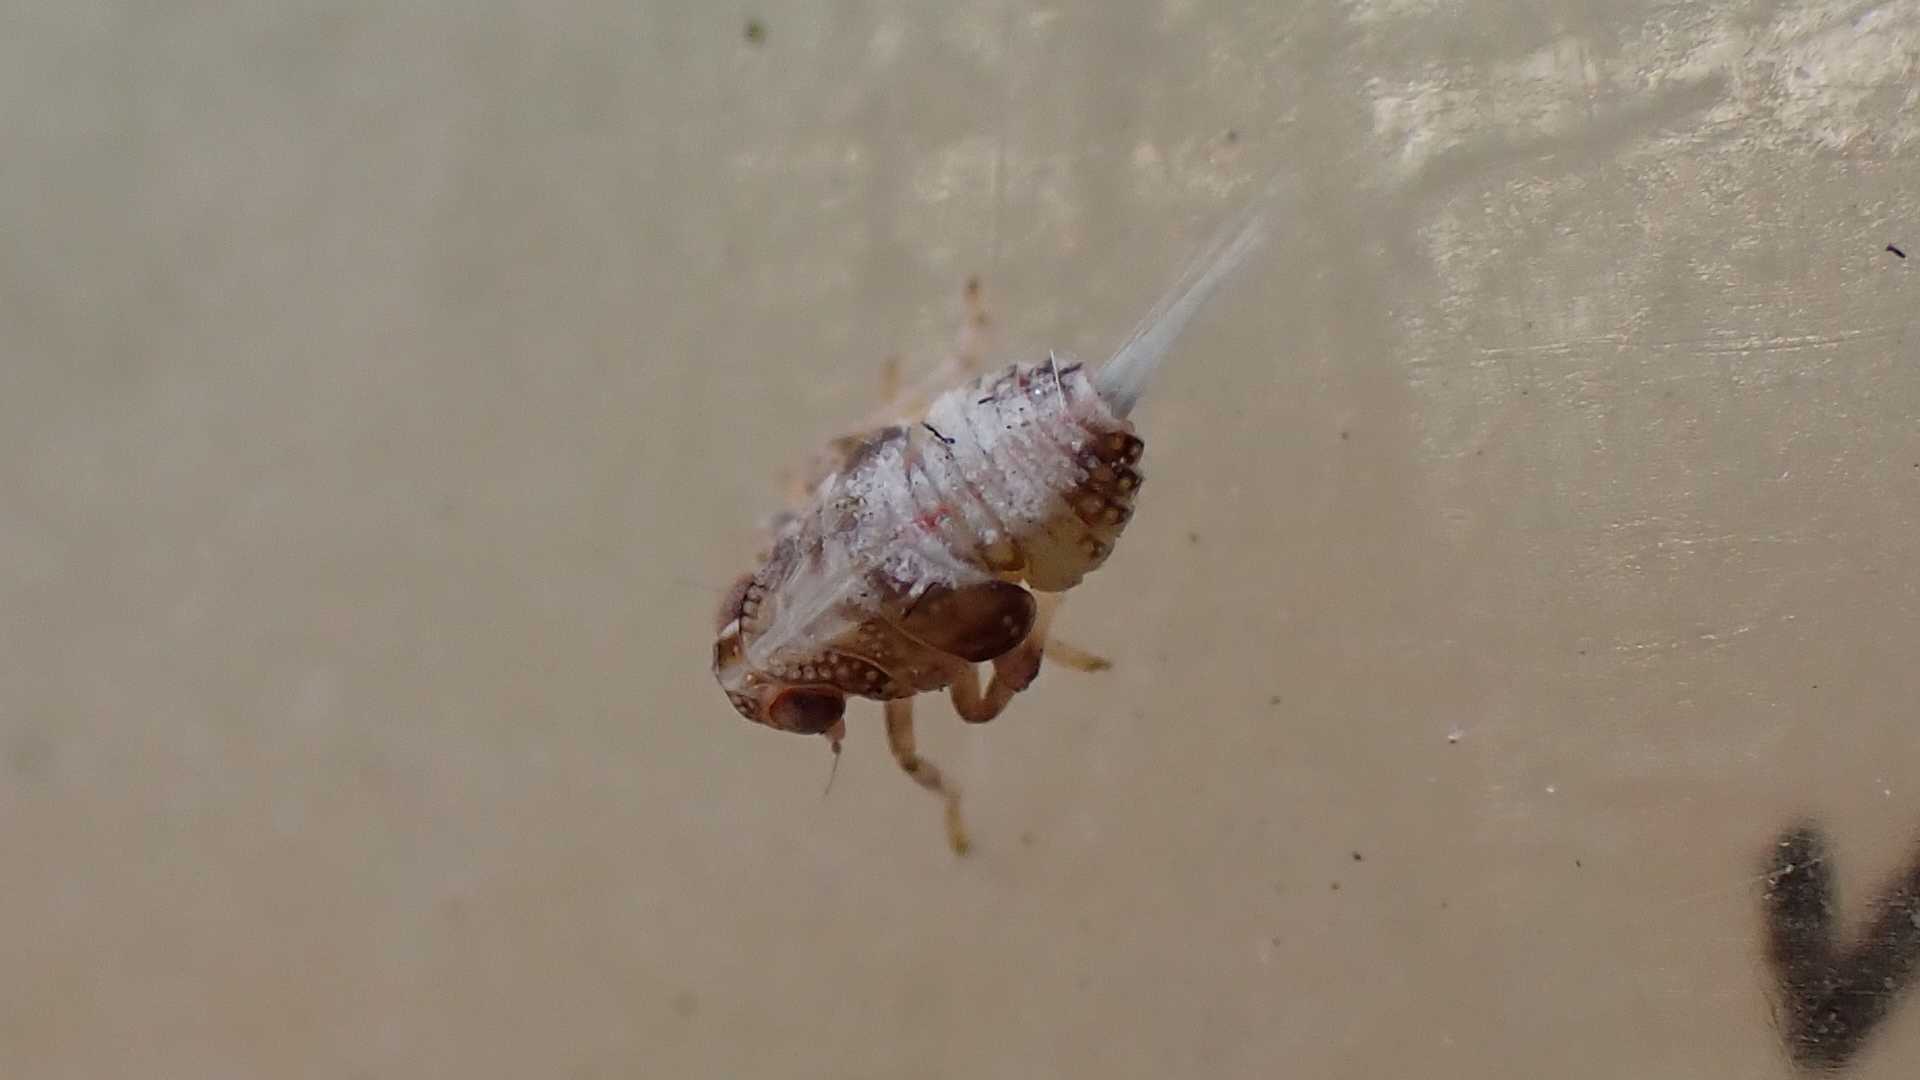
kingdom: Animalia
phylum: Arthropoda
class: Insecta
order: Hemiptera
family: Issidae
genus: Issus
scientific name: Issus
